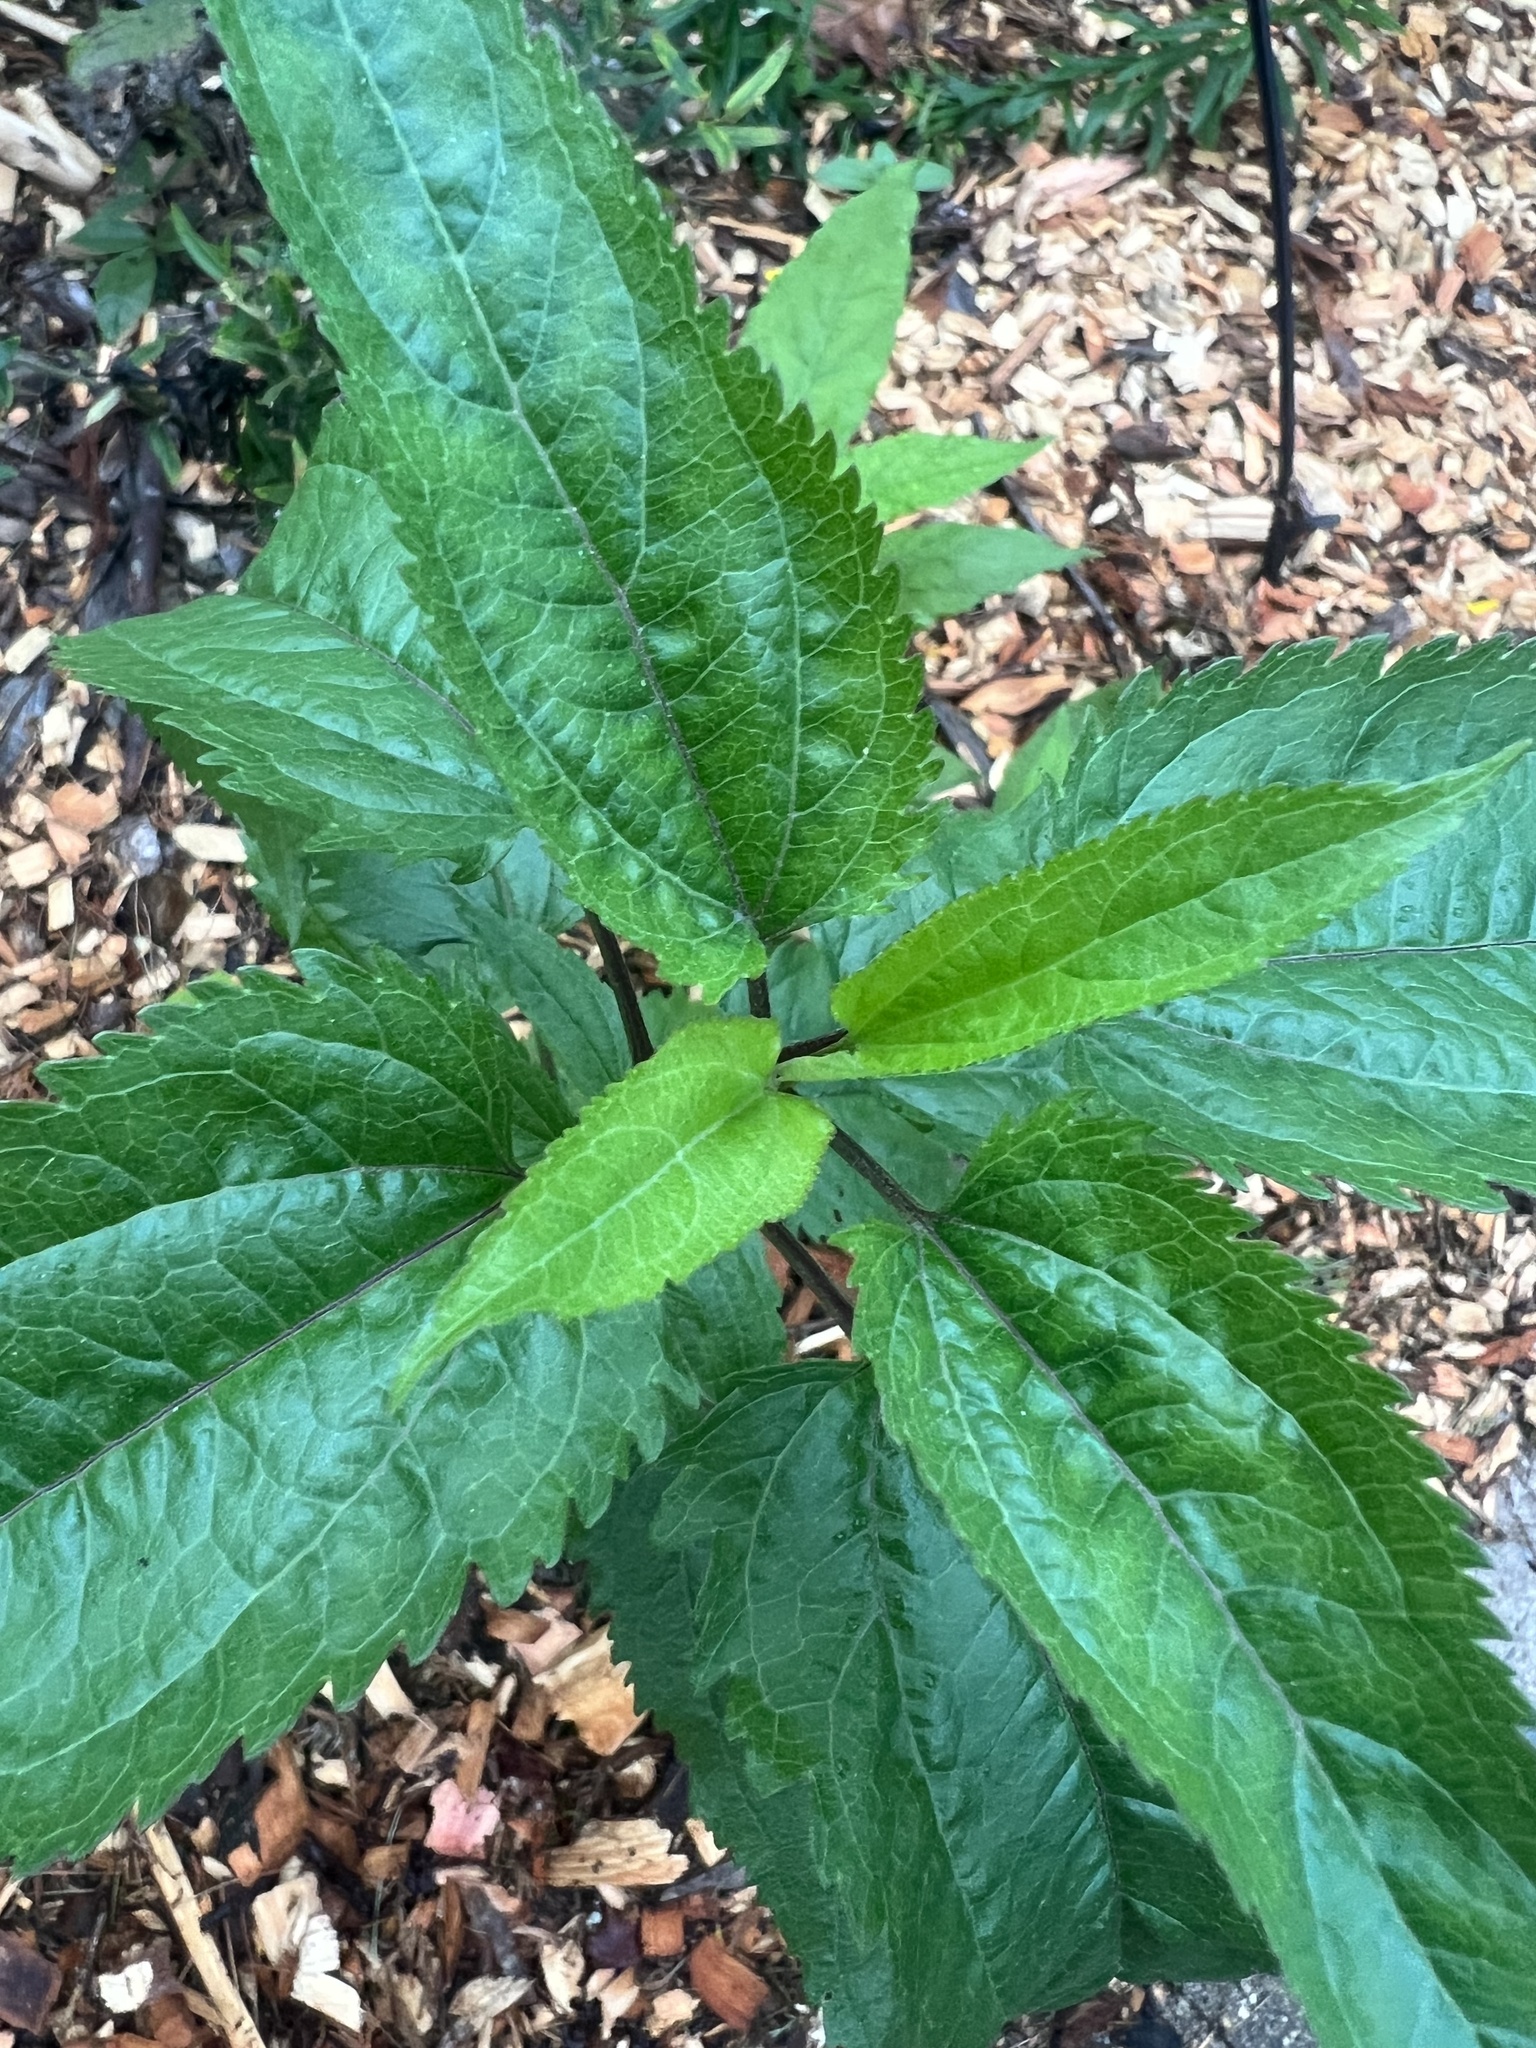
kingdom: Plantae
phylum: Tracheophyta
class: Magnoliopsida
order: Asterales
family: Asteraceae
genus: Eupatorium
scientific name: Eupatorium serotinum
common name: Late boneset
